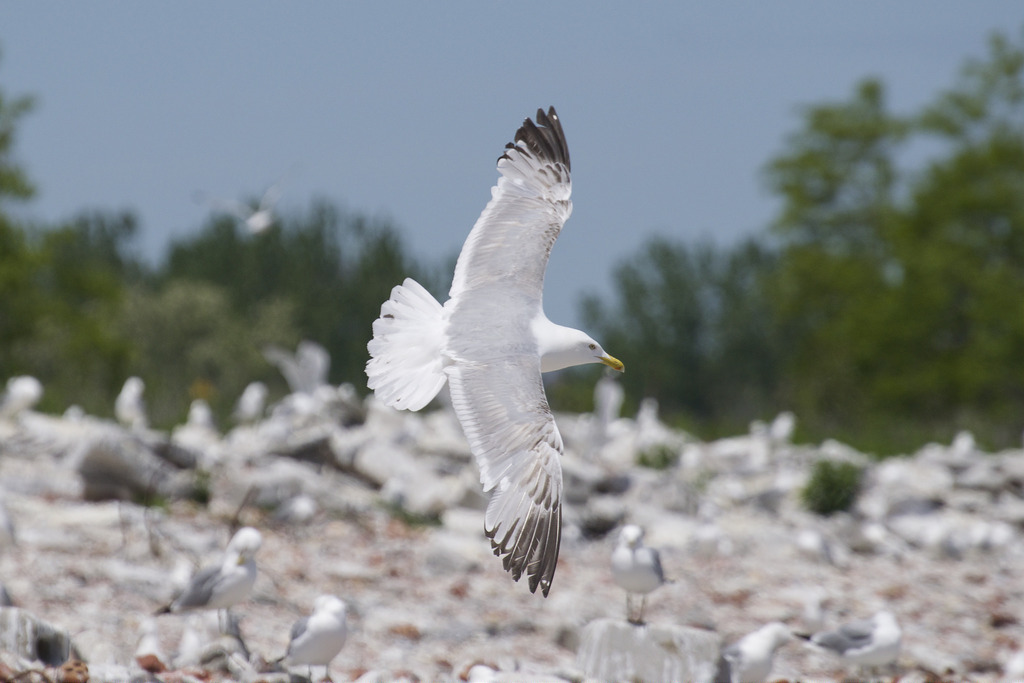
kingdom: Animalia
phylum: Chordata
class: Aves
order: Charadriiformes
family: Laridae
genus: Larus
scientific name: Larus argentatus
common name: Herring gull
